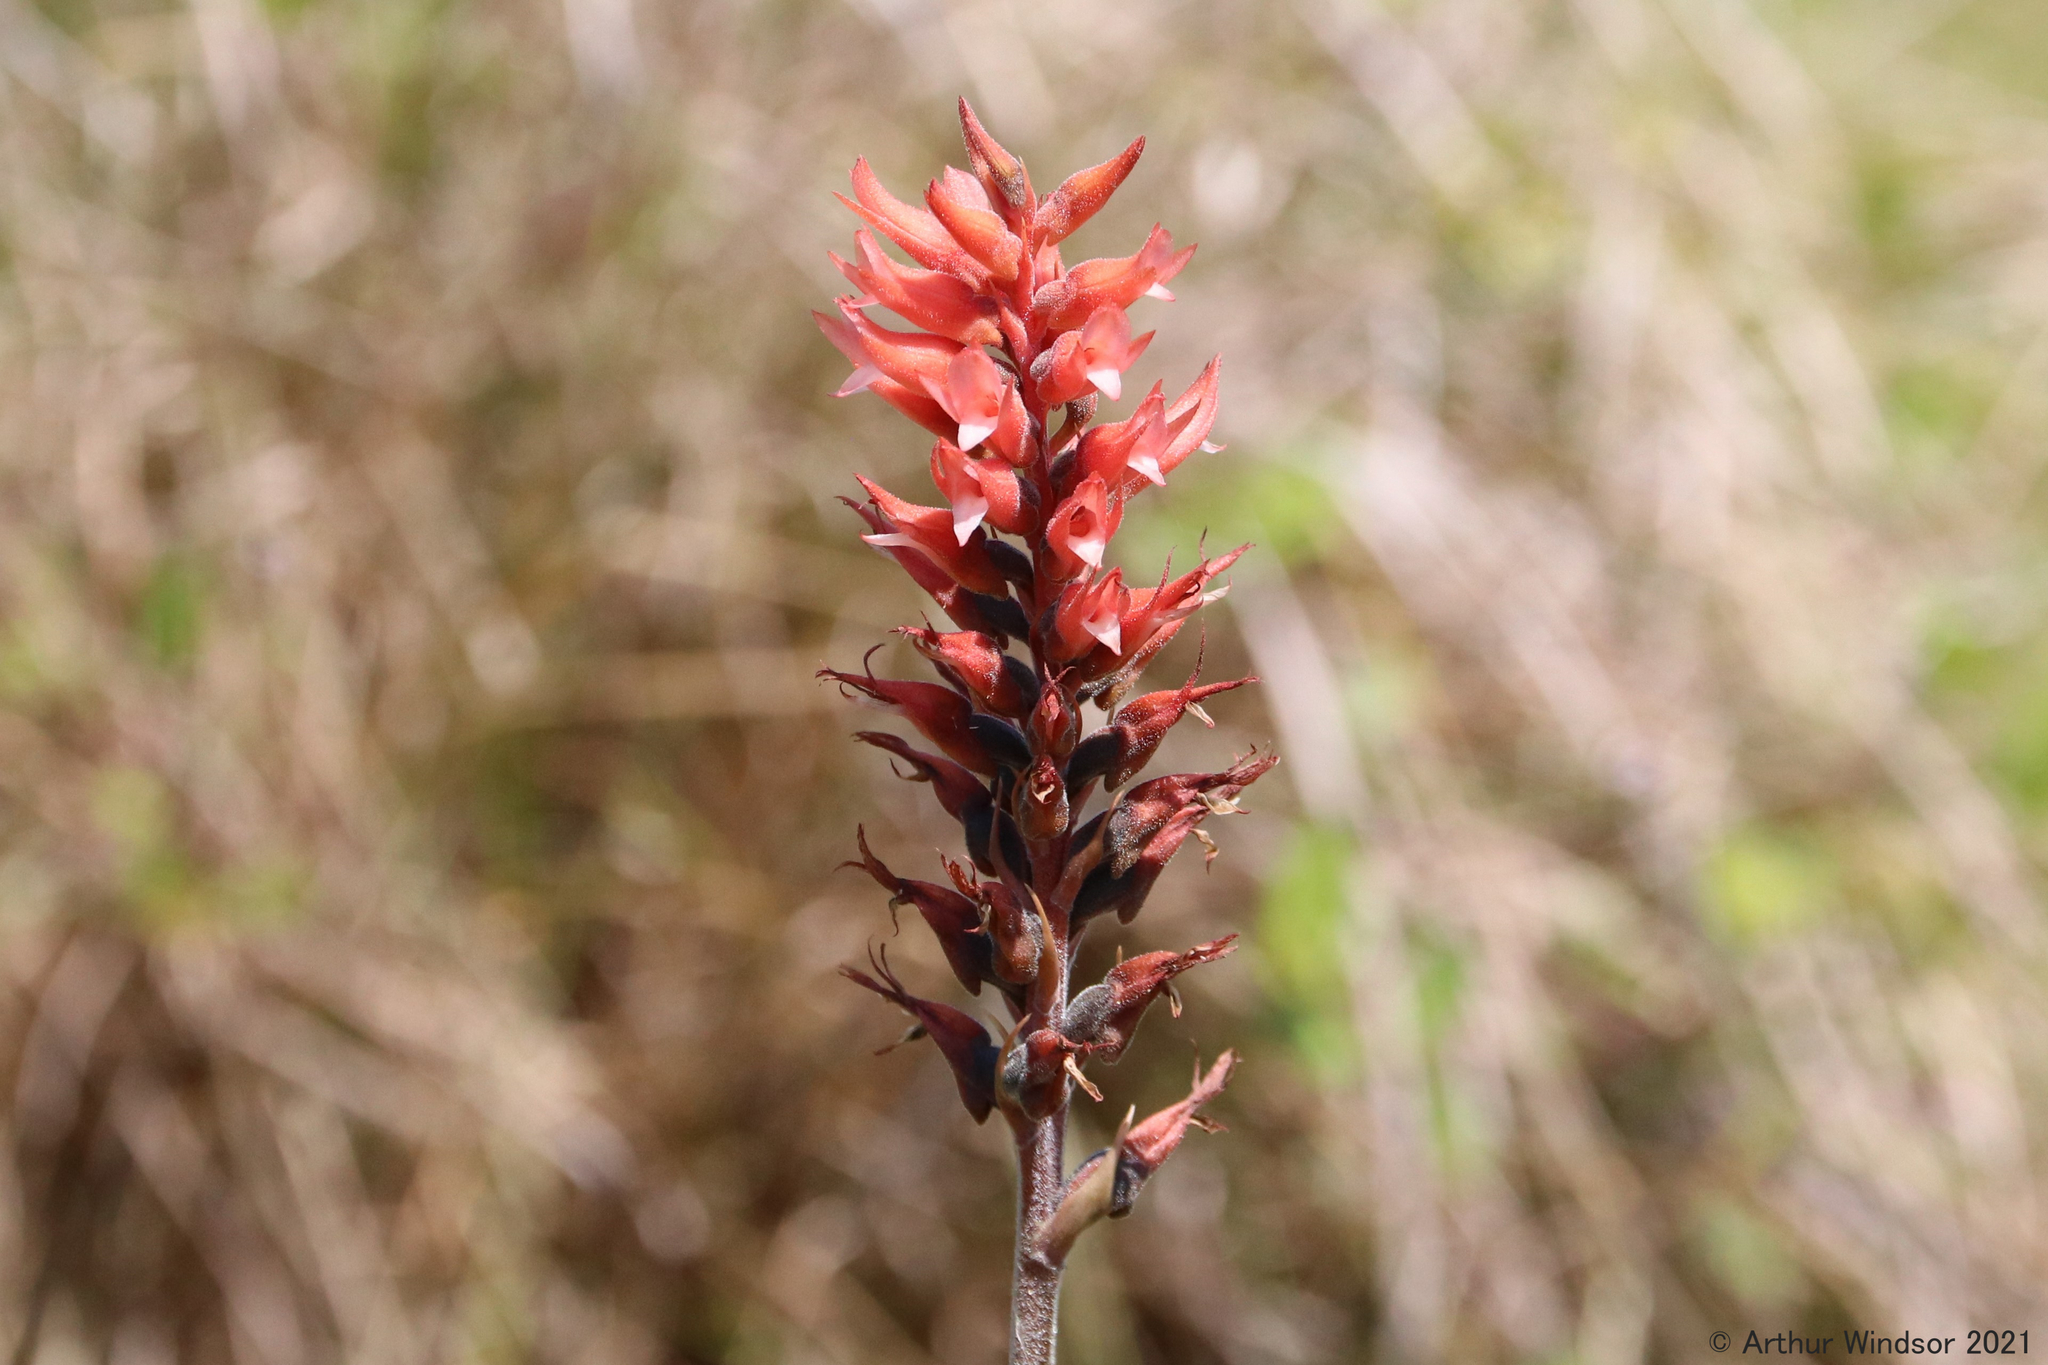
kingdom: Plantae
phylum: Tracheophyta
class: Liliopsida
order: Asparagales
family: Orchidaceae
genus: Sacoila
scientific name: Sacoila lanceolata
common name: Leafless beaked ladiestresses
